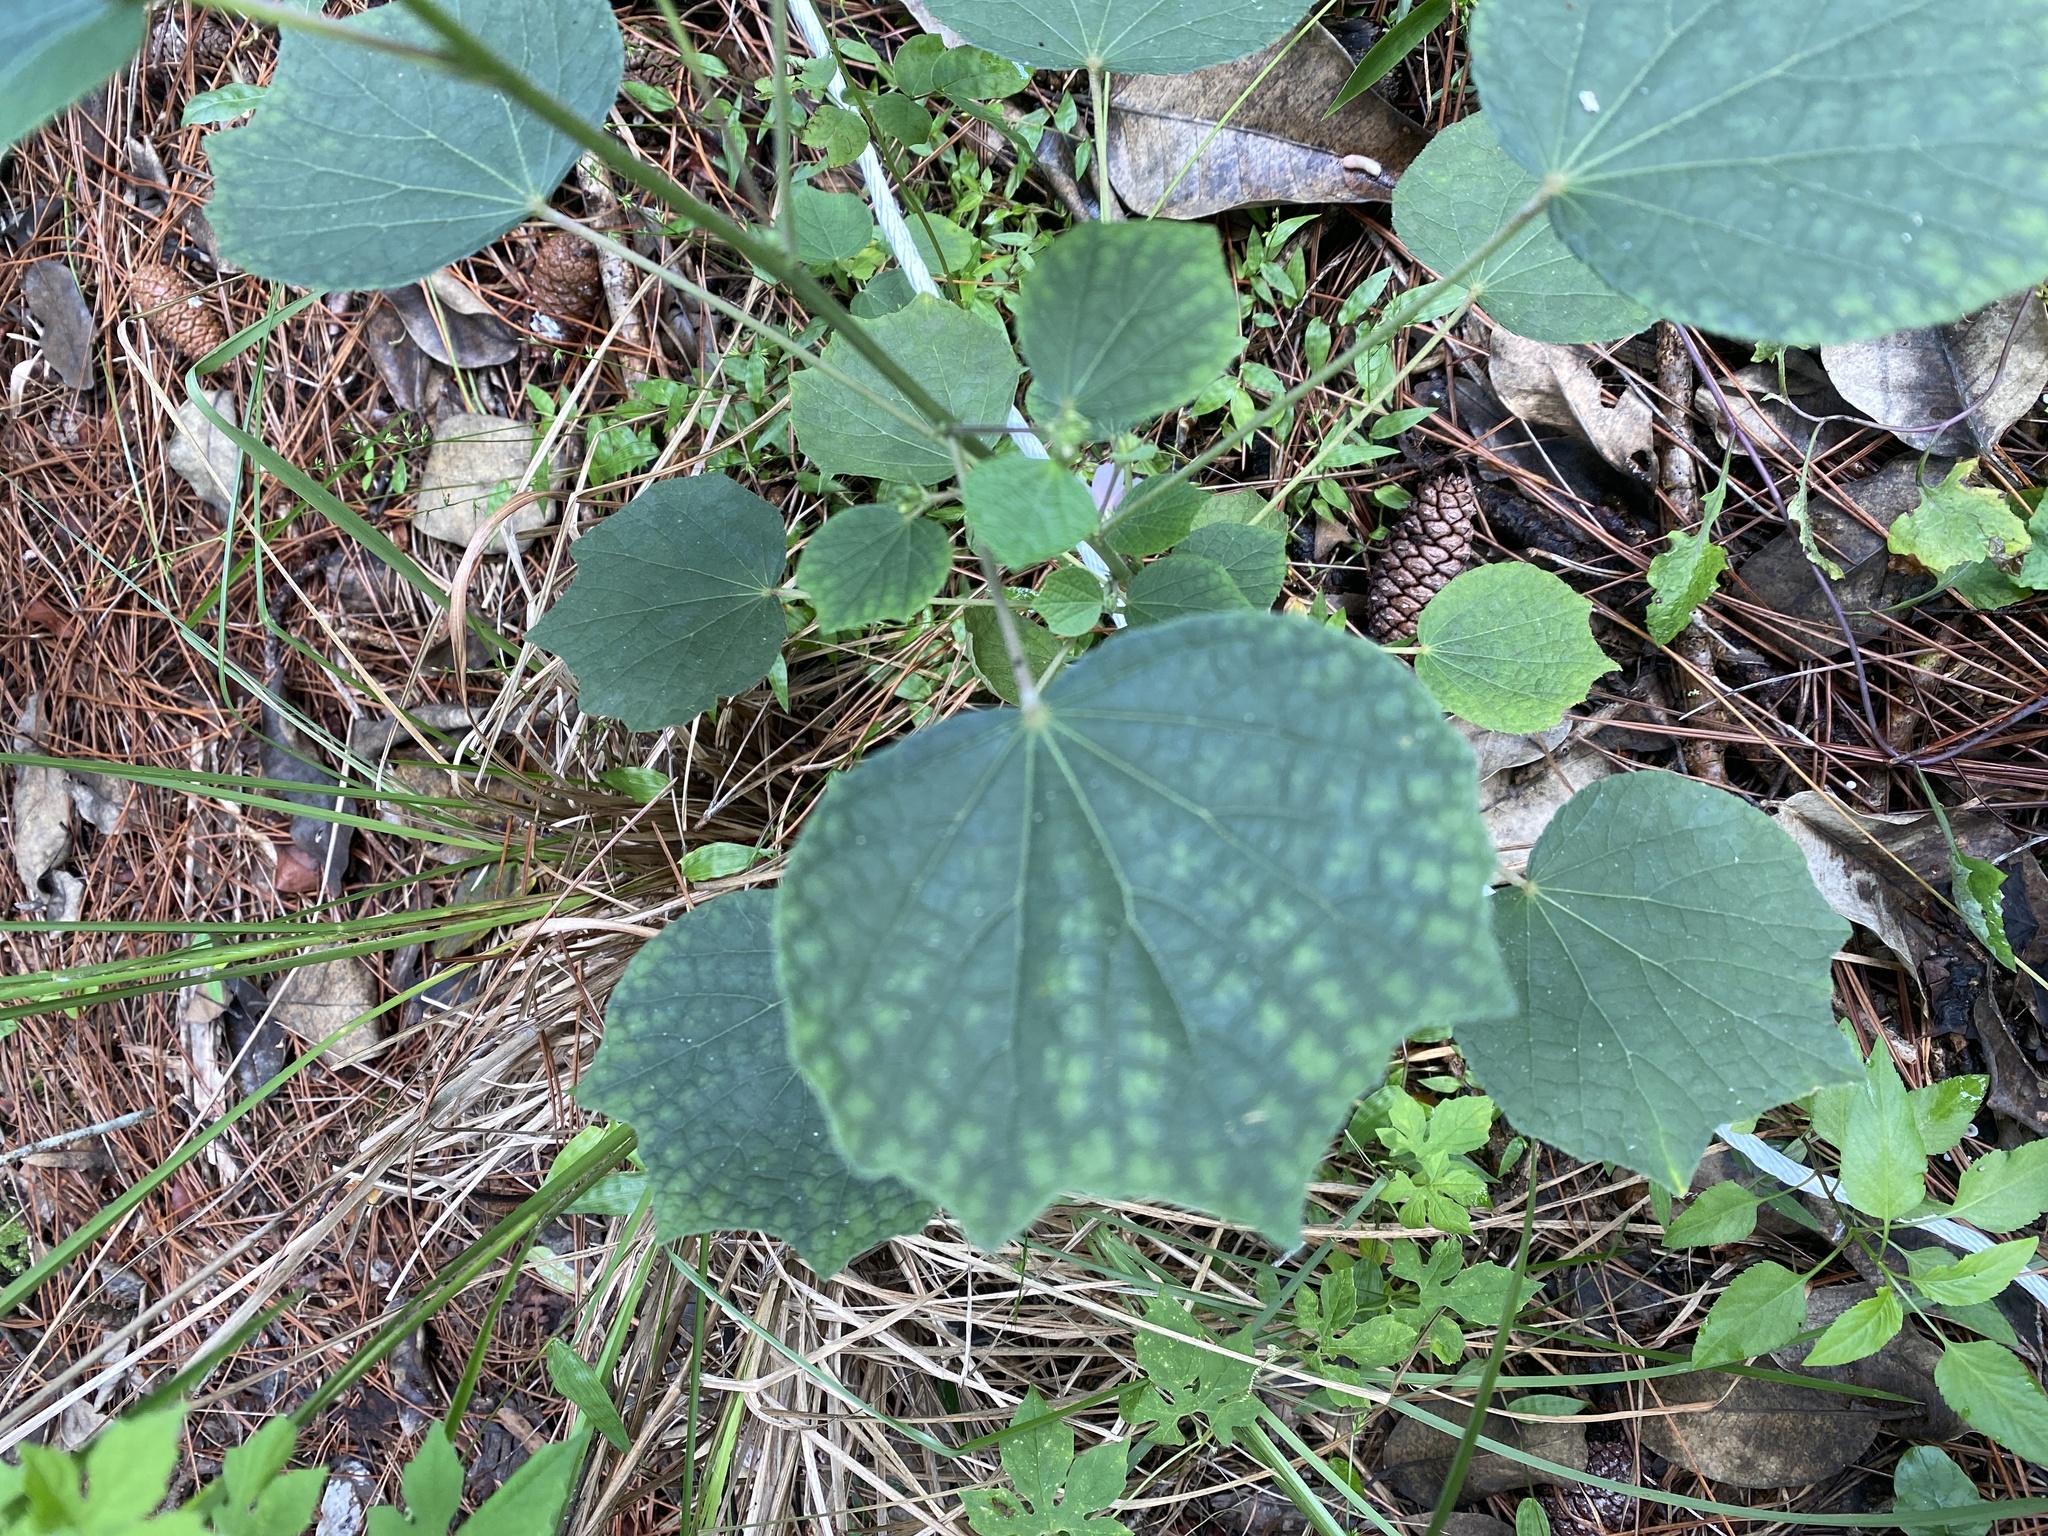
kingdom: Plantae
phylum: Tracheophyta
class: Magnoliopsida
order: Malvales
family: Malvaceae
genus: Urena
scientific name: Urena lobata
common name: Caesarweed
